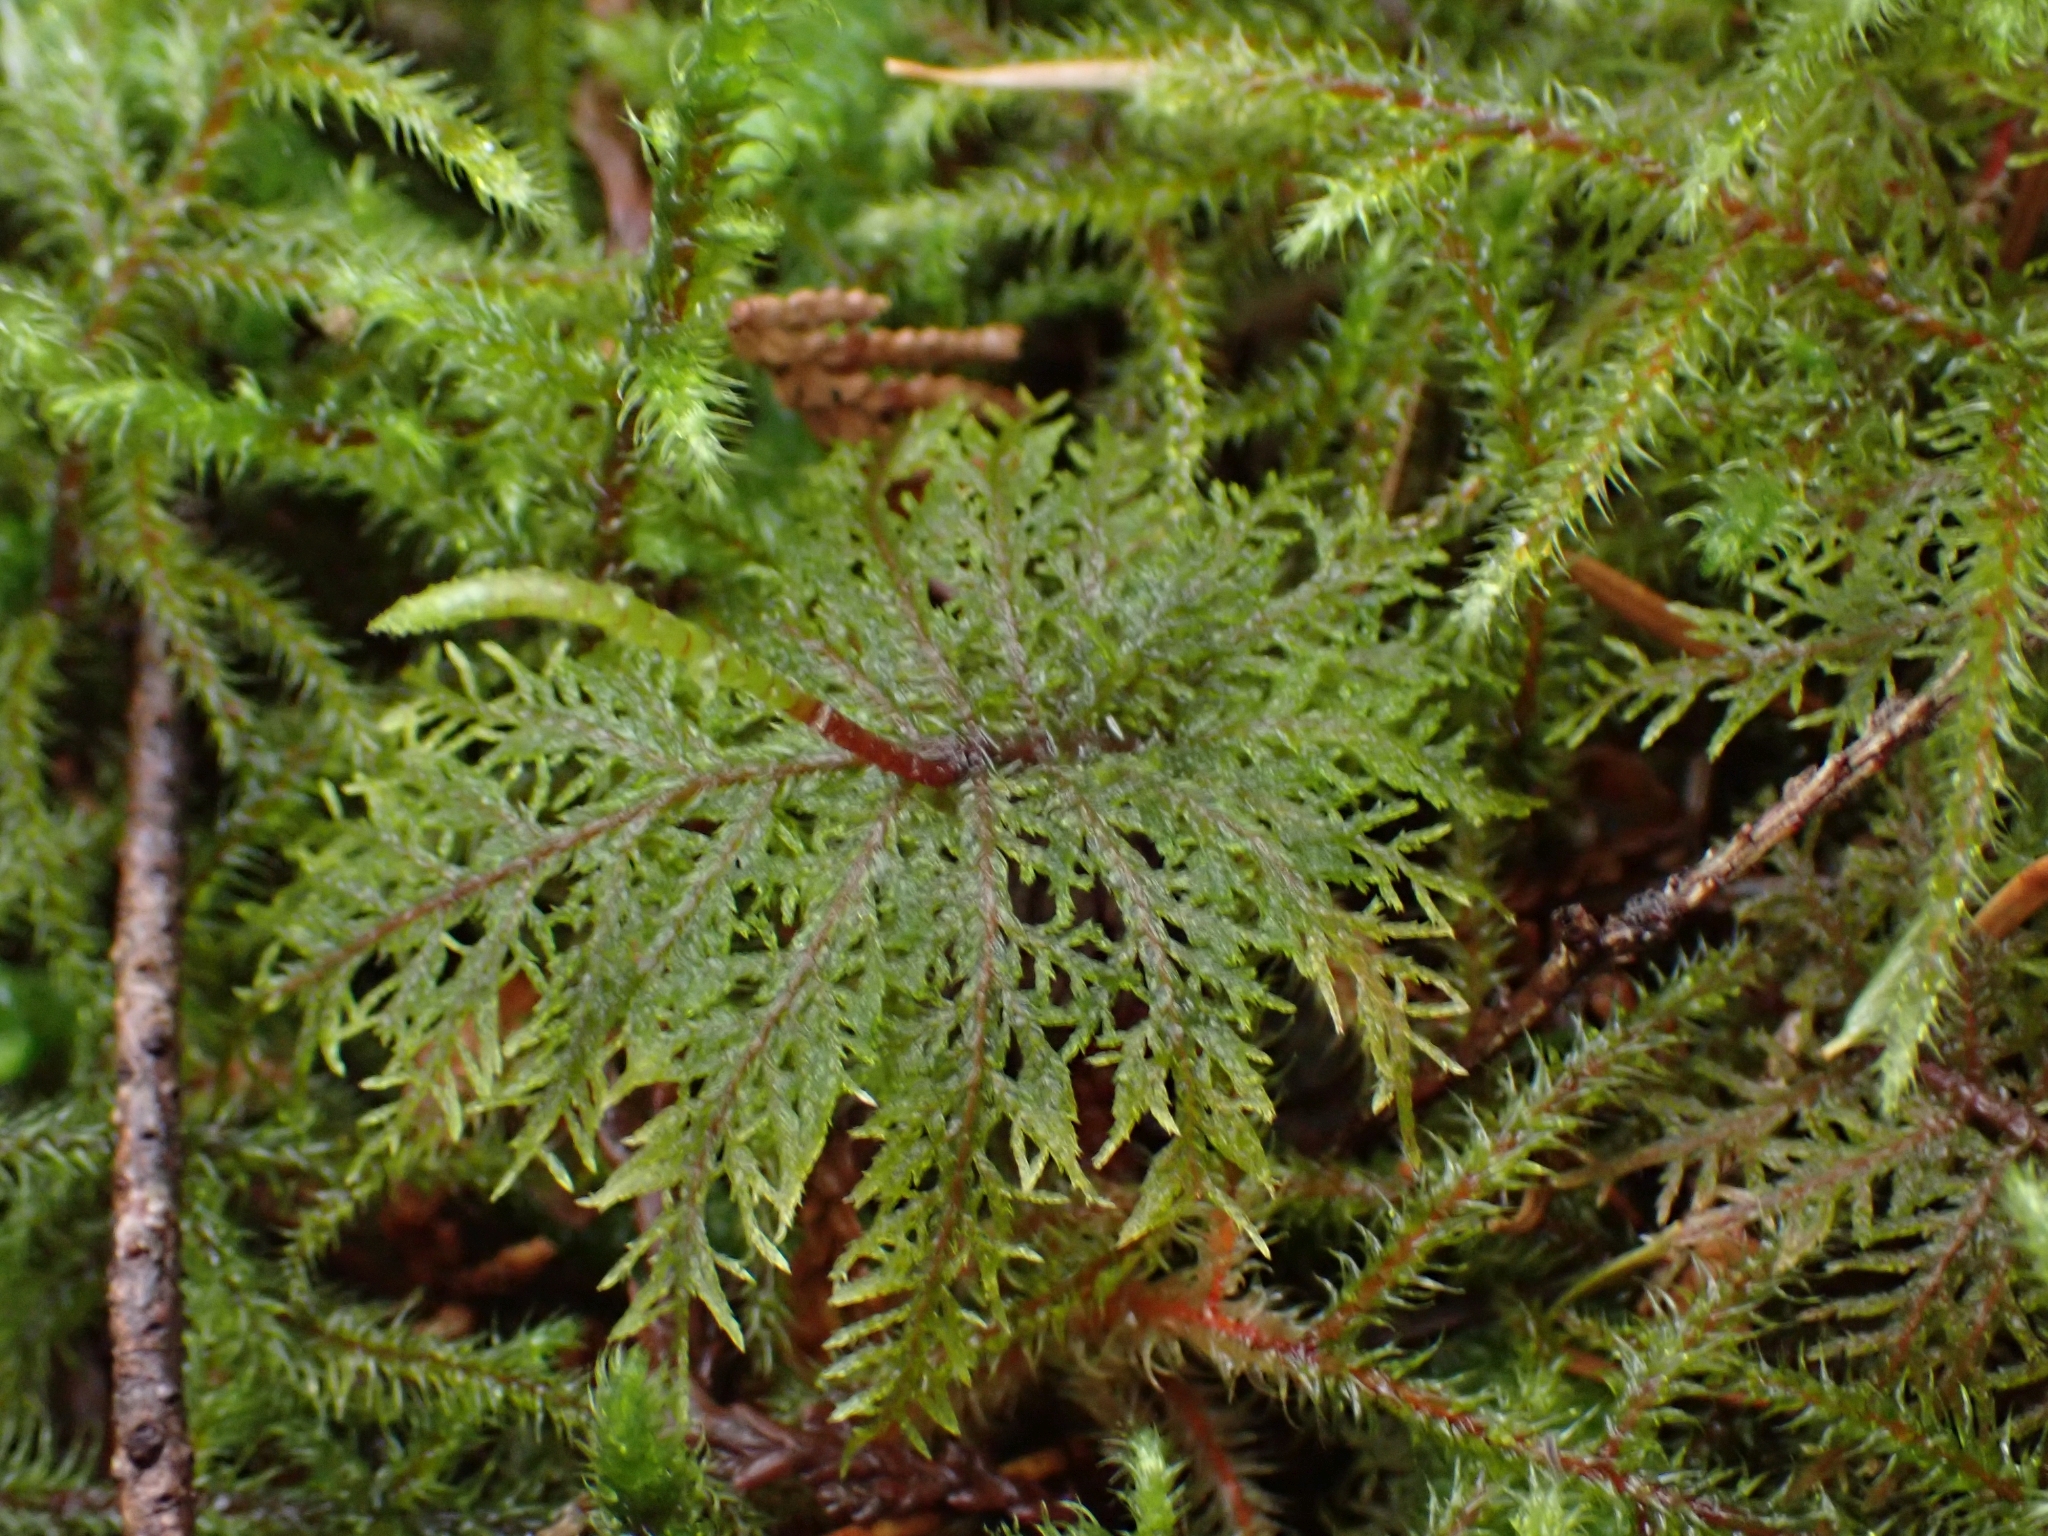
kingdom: Plantae
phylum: Bryophyta
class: Bryopsida
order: Hypnales
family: Hylocomiaceae
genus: Hylocomium
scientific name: Hylocomium splendens
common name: Stairstep moss
